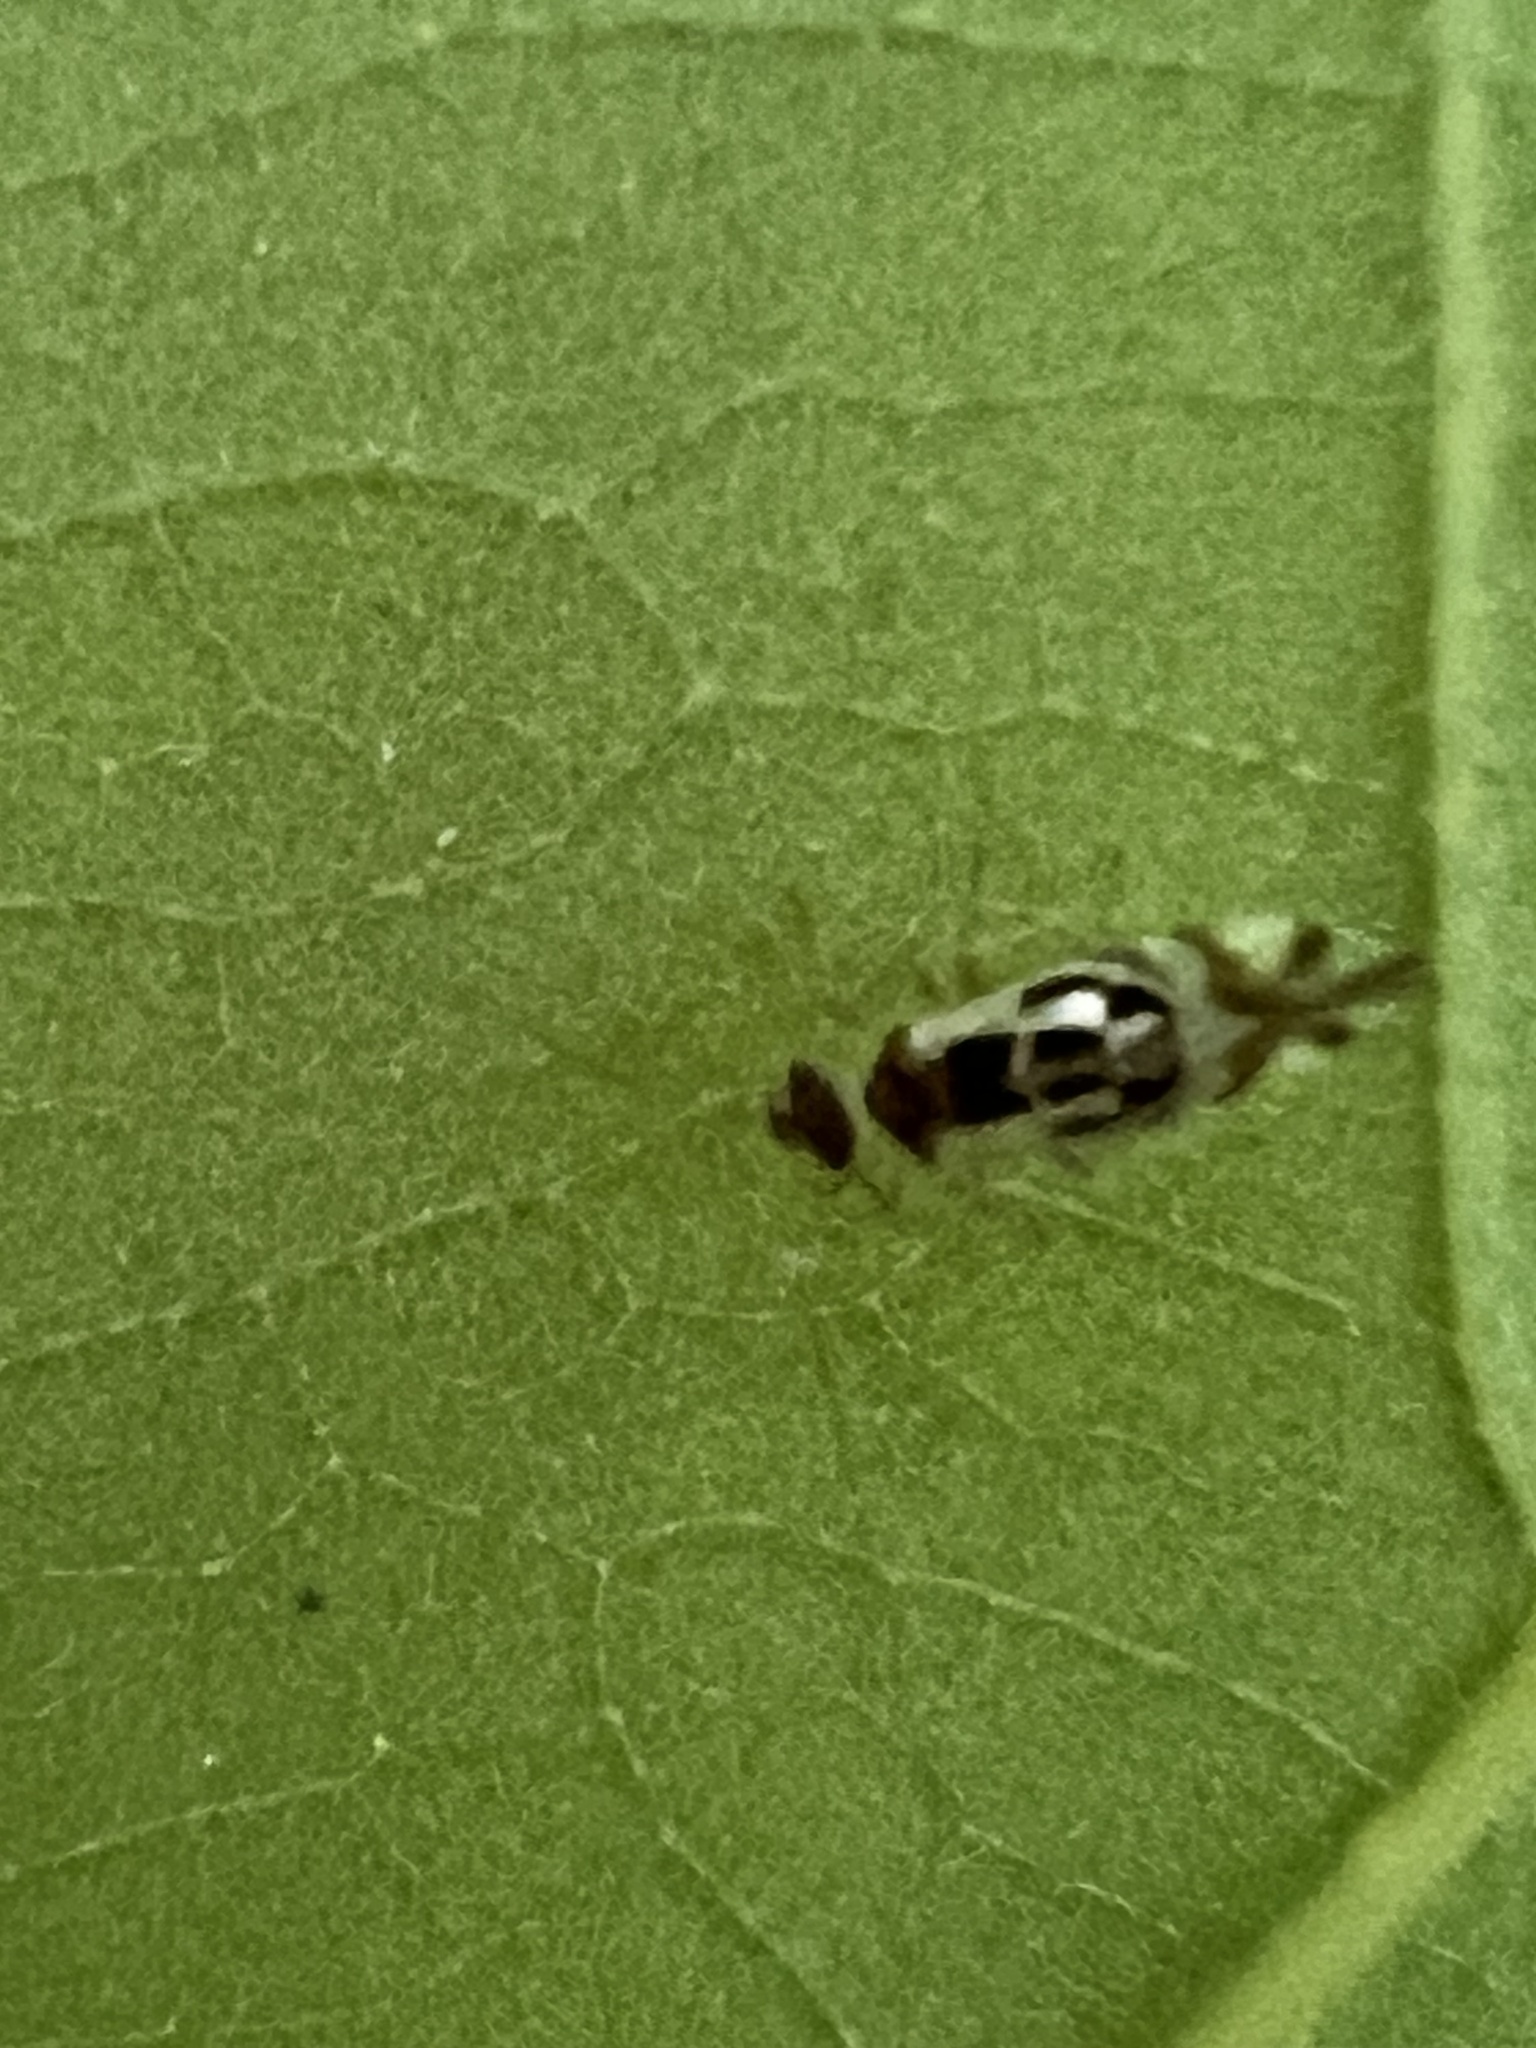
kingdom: Animalia
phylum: Arthropoda
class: Insecta
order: Psocodea
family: Stenopsocidae
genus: Graphopsocus
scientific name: Graphopsocus cruciatus
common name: Lizard bark louse
